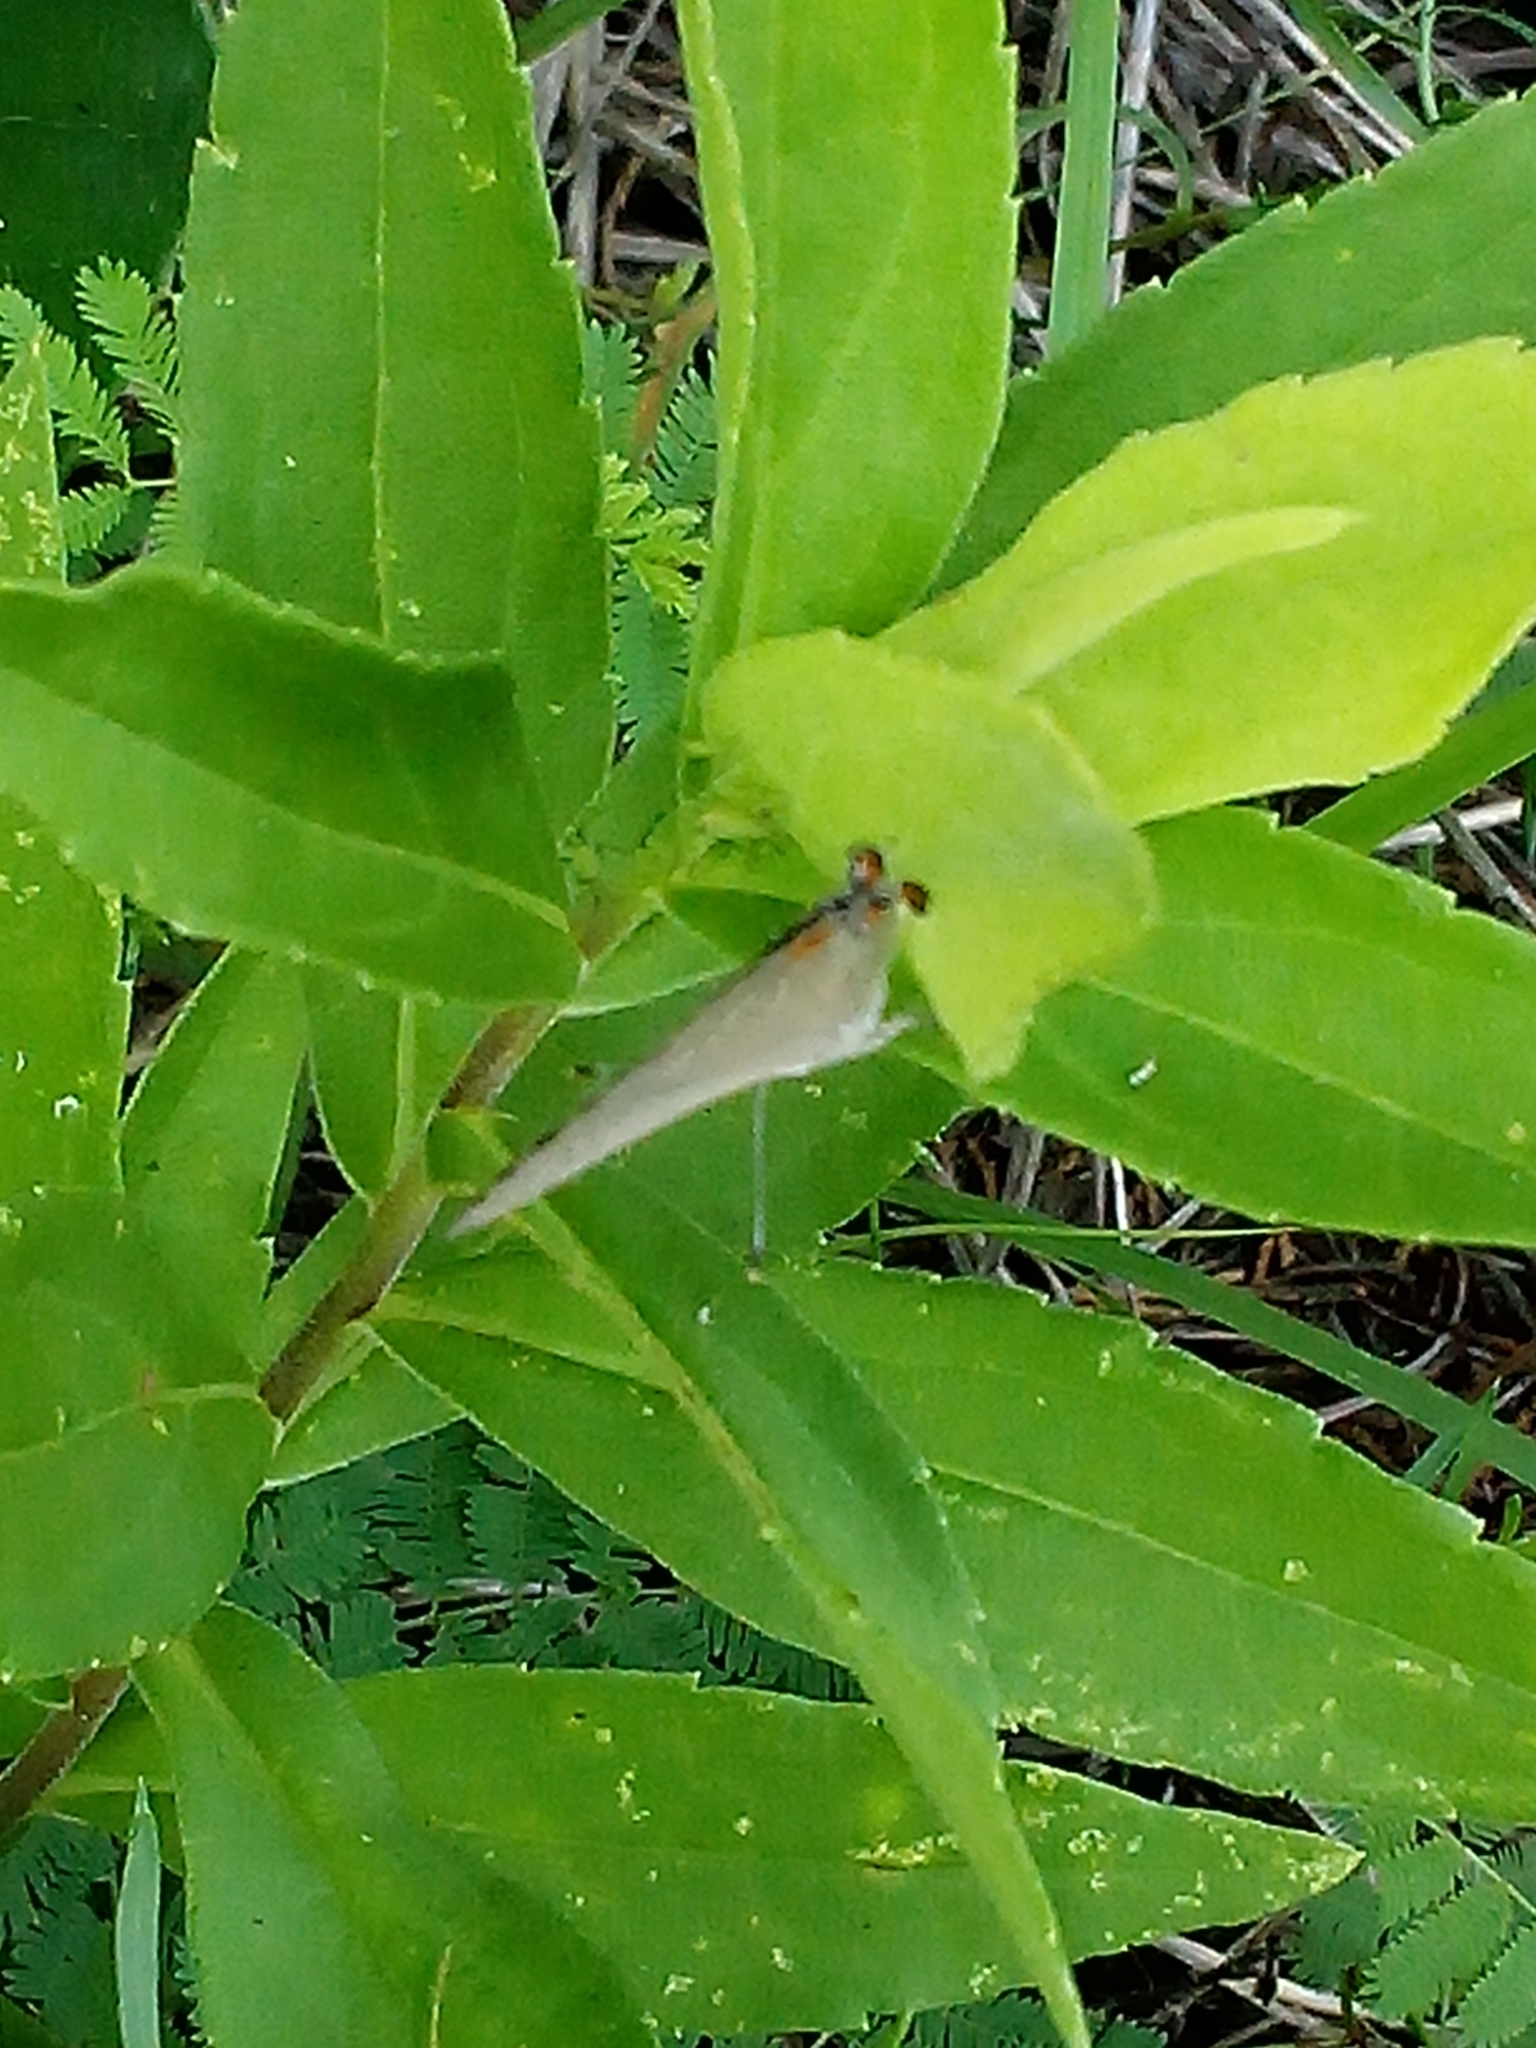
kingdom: Animalia
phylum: Arthropoda
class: Insecta
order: Lepidoptera
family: Lycaenidae
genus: Strymon
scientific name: Strymon melinus
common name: Gray hairstreak
